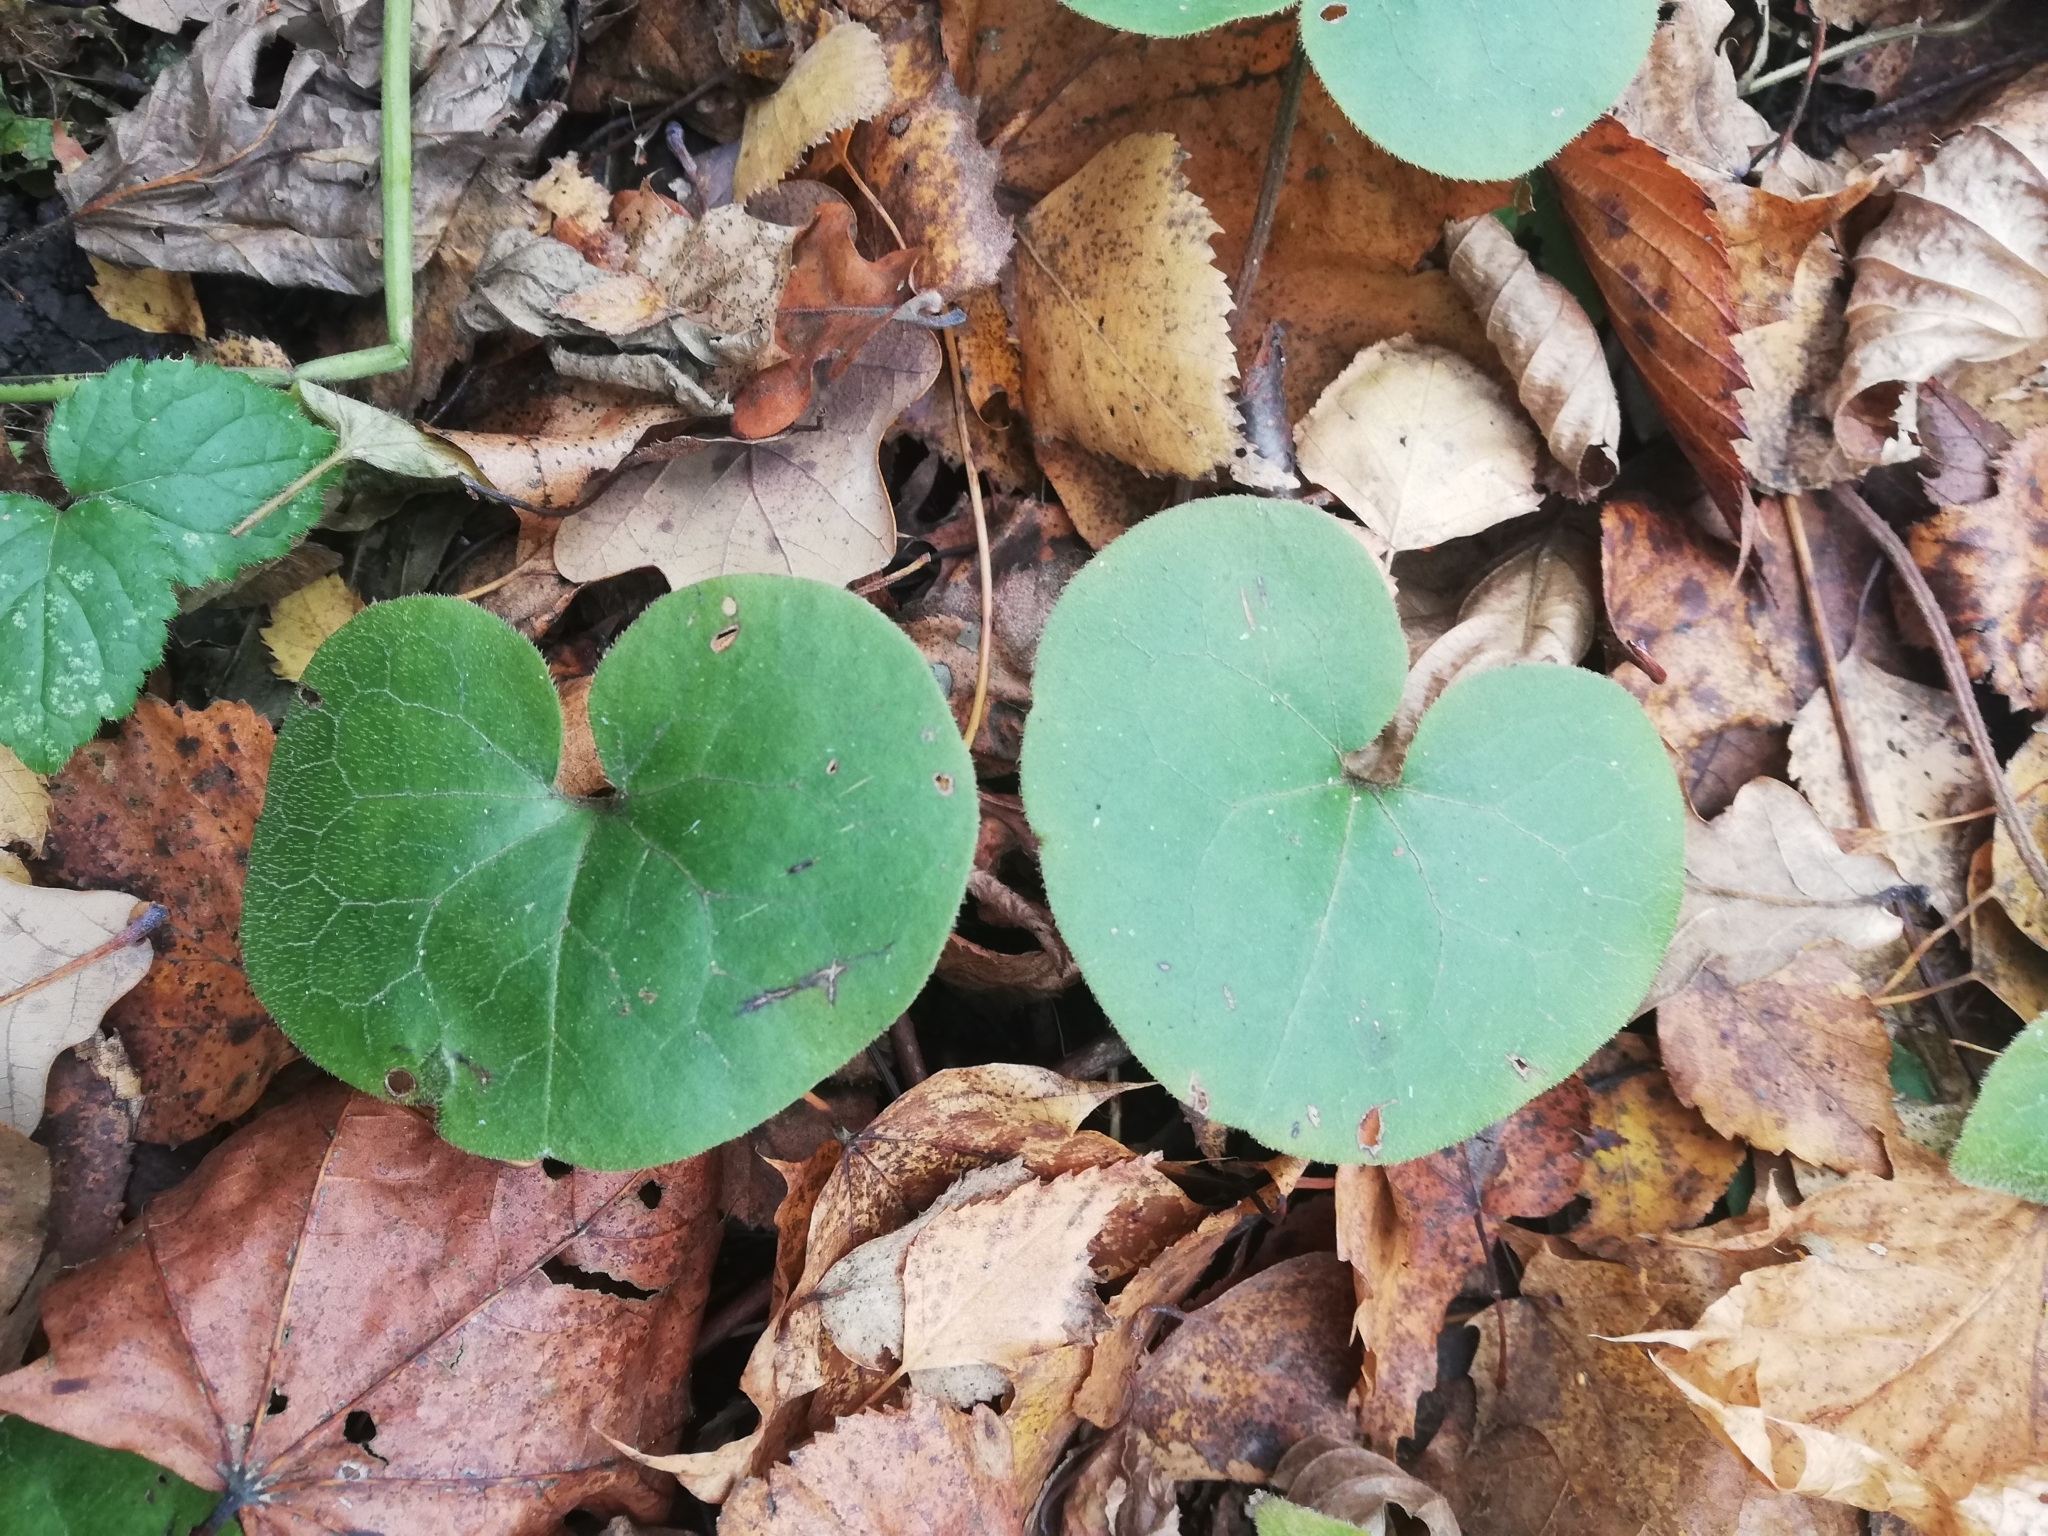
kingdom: Plantae
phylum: Tracheophyta
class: Magnoliopsida
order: Piperales
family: Aristolochiaceae
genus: Asarum
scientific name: Asarum europaeum
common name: Asarabacca
